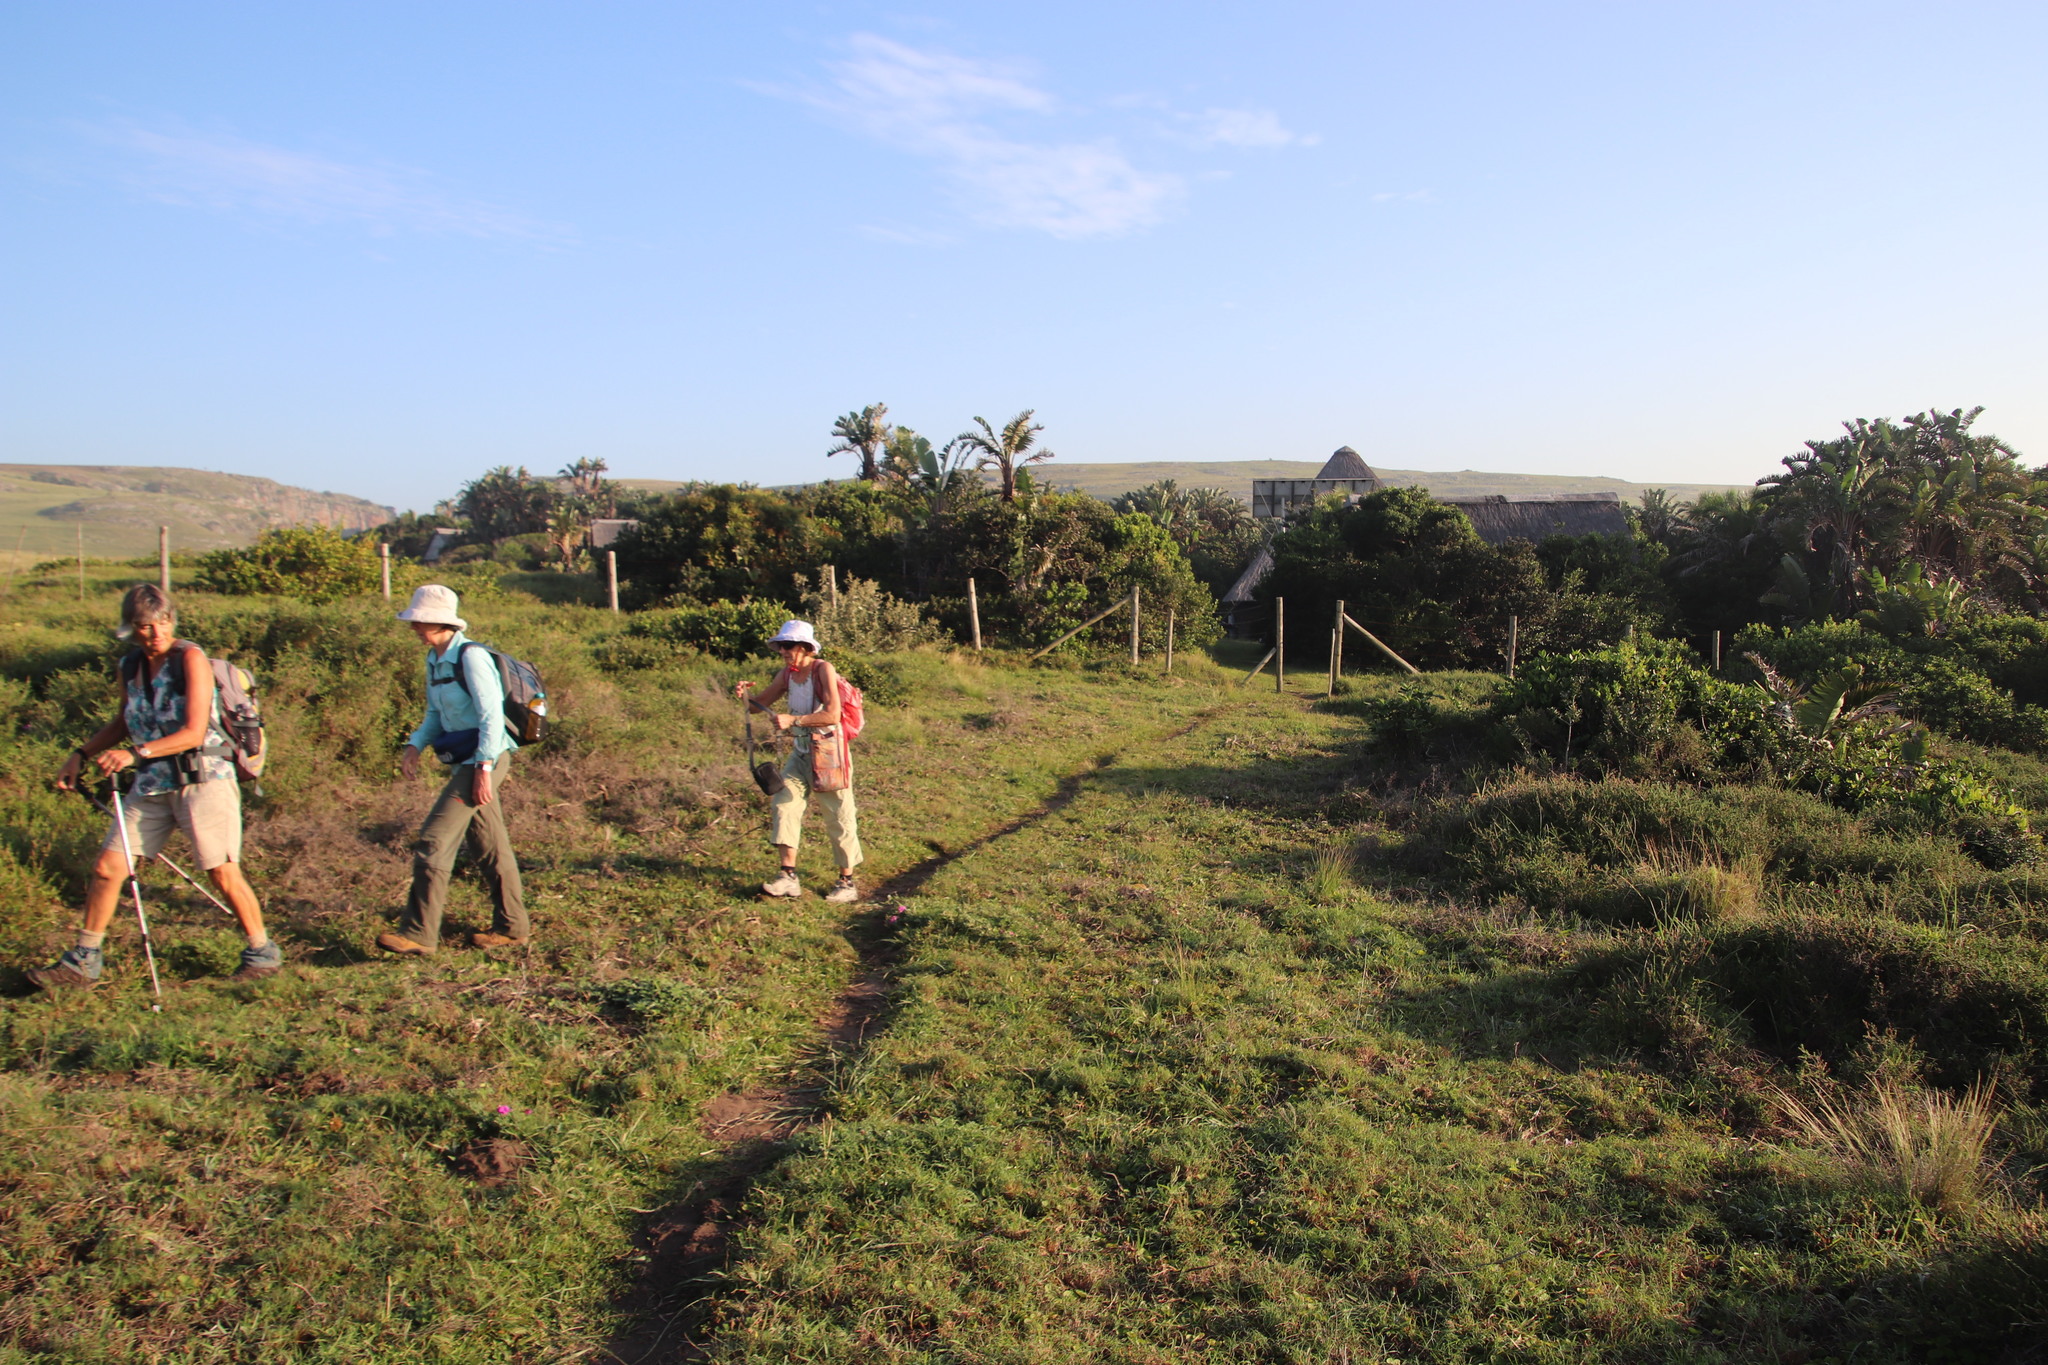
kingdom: Plantae
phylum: Tracheophyta
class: Liliopsida
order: Zingiberales
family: Strelitziaceae
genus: Strelitzia
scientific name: Strelitzia nicolai
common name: Bird-of-paradise tree
